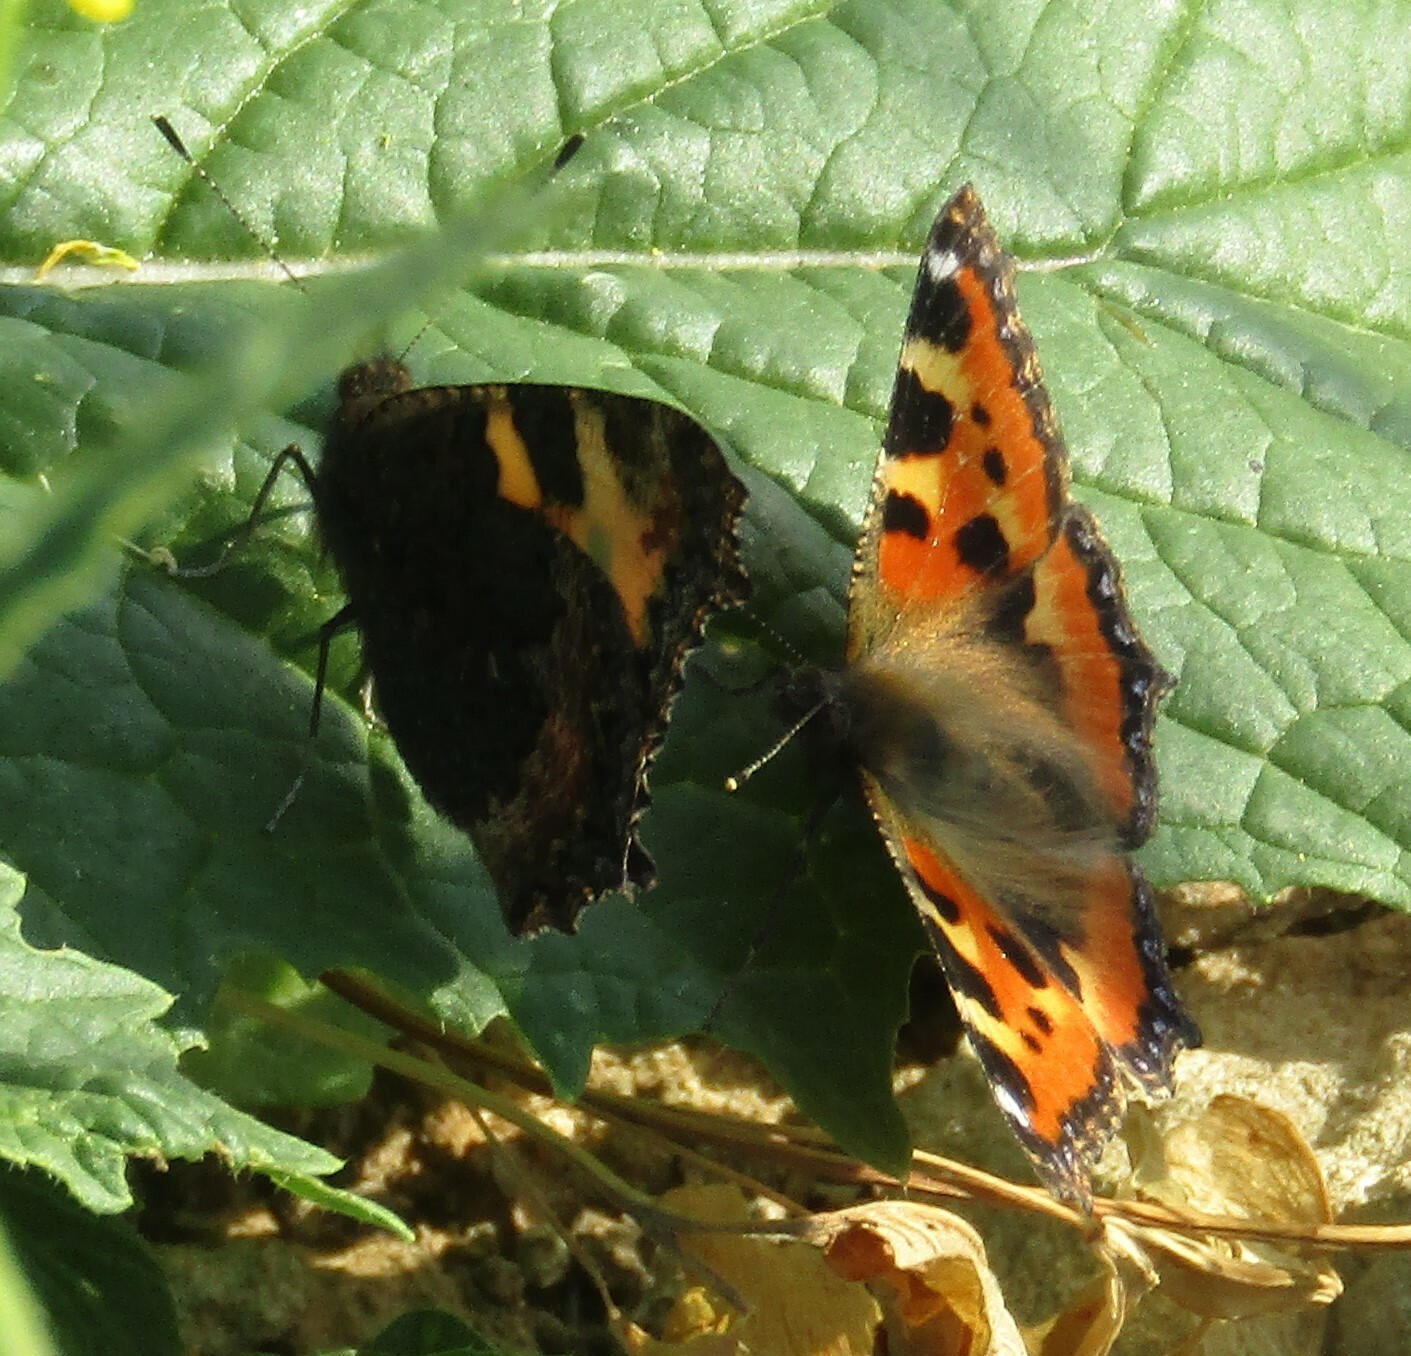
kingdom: Animalia
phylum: Arthropoda
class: Insecta
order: Lepidoptera
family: Nymphalidae
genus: Aglais
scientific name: Aglais urticae
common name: Small tortoiseshell
